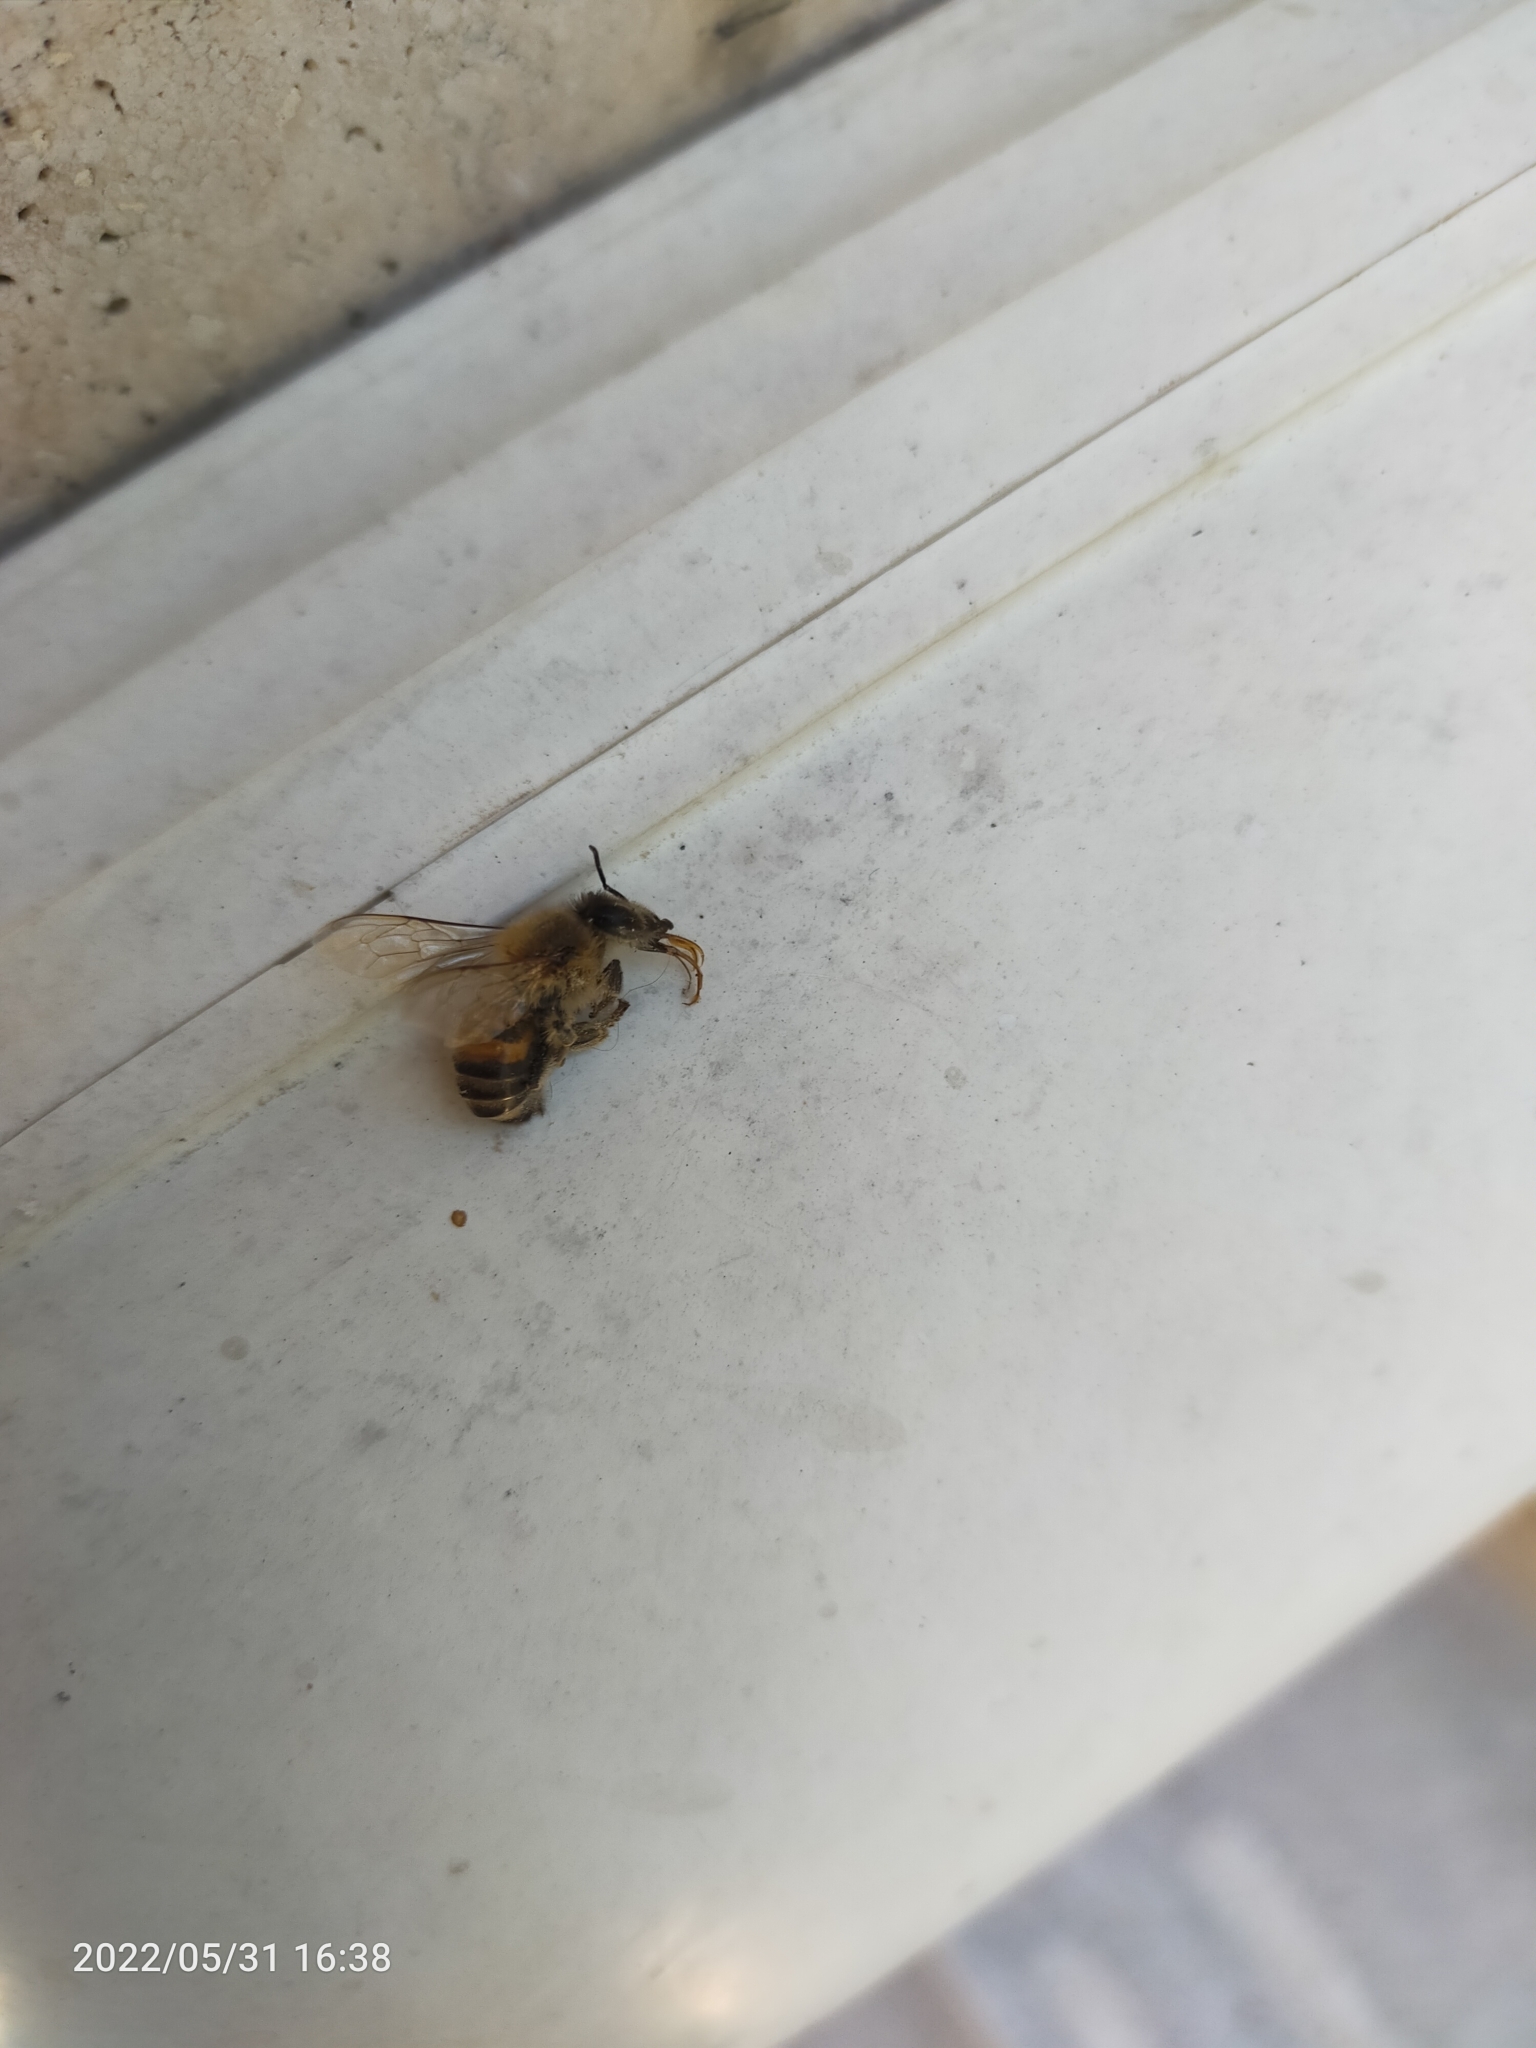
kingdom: Animalia
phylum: Arthropoda
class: Insecta
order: Hymenoptera
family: Apidae
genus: Apis
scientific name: Apis mellifera
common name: Honey bee
